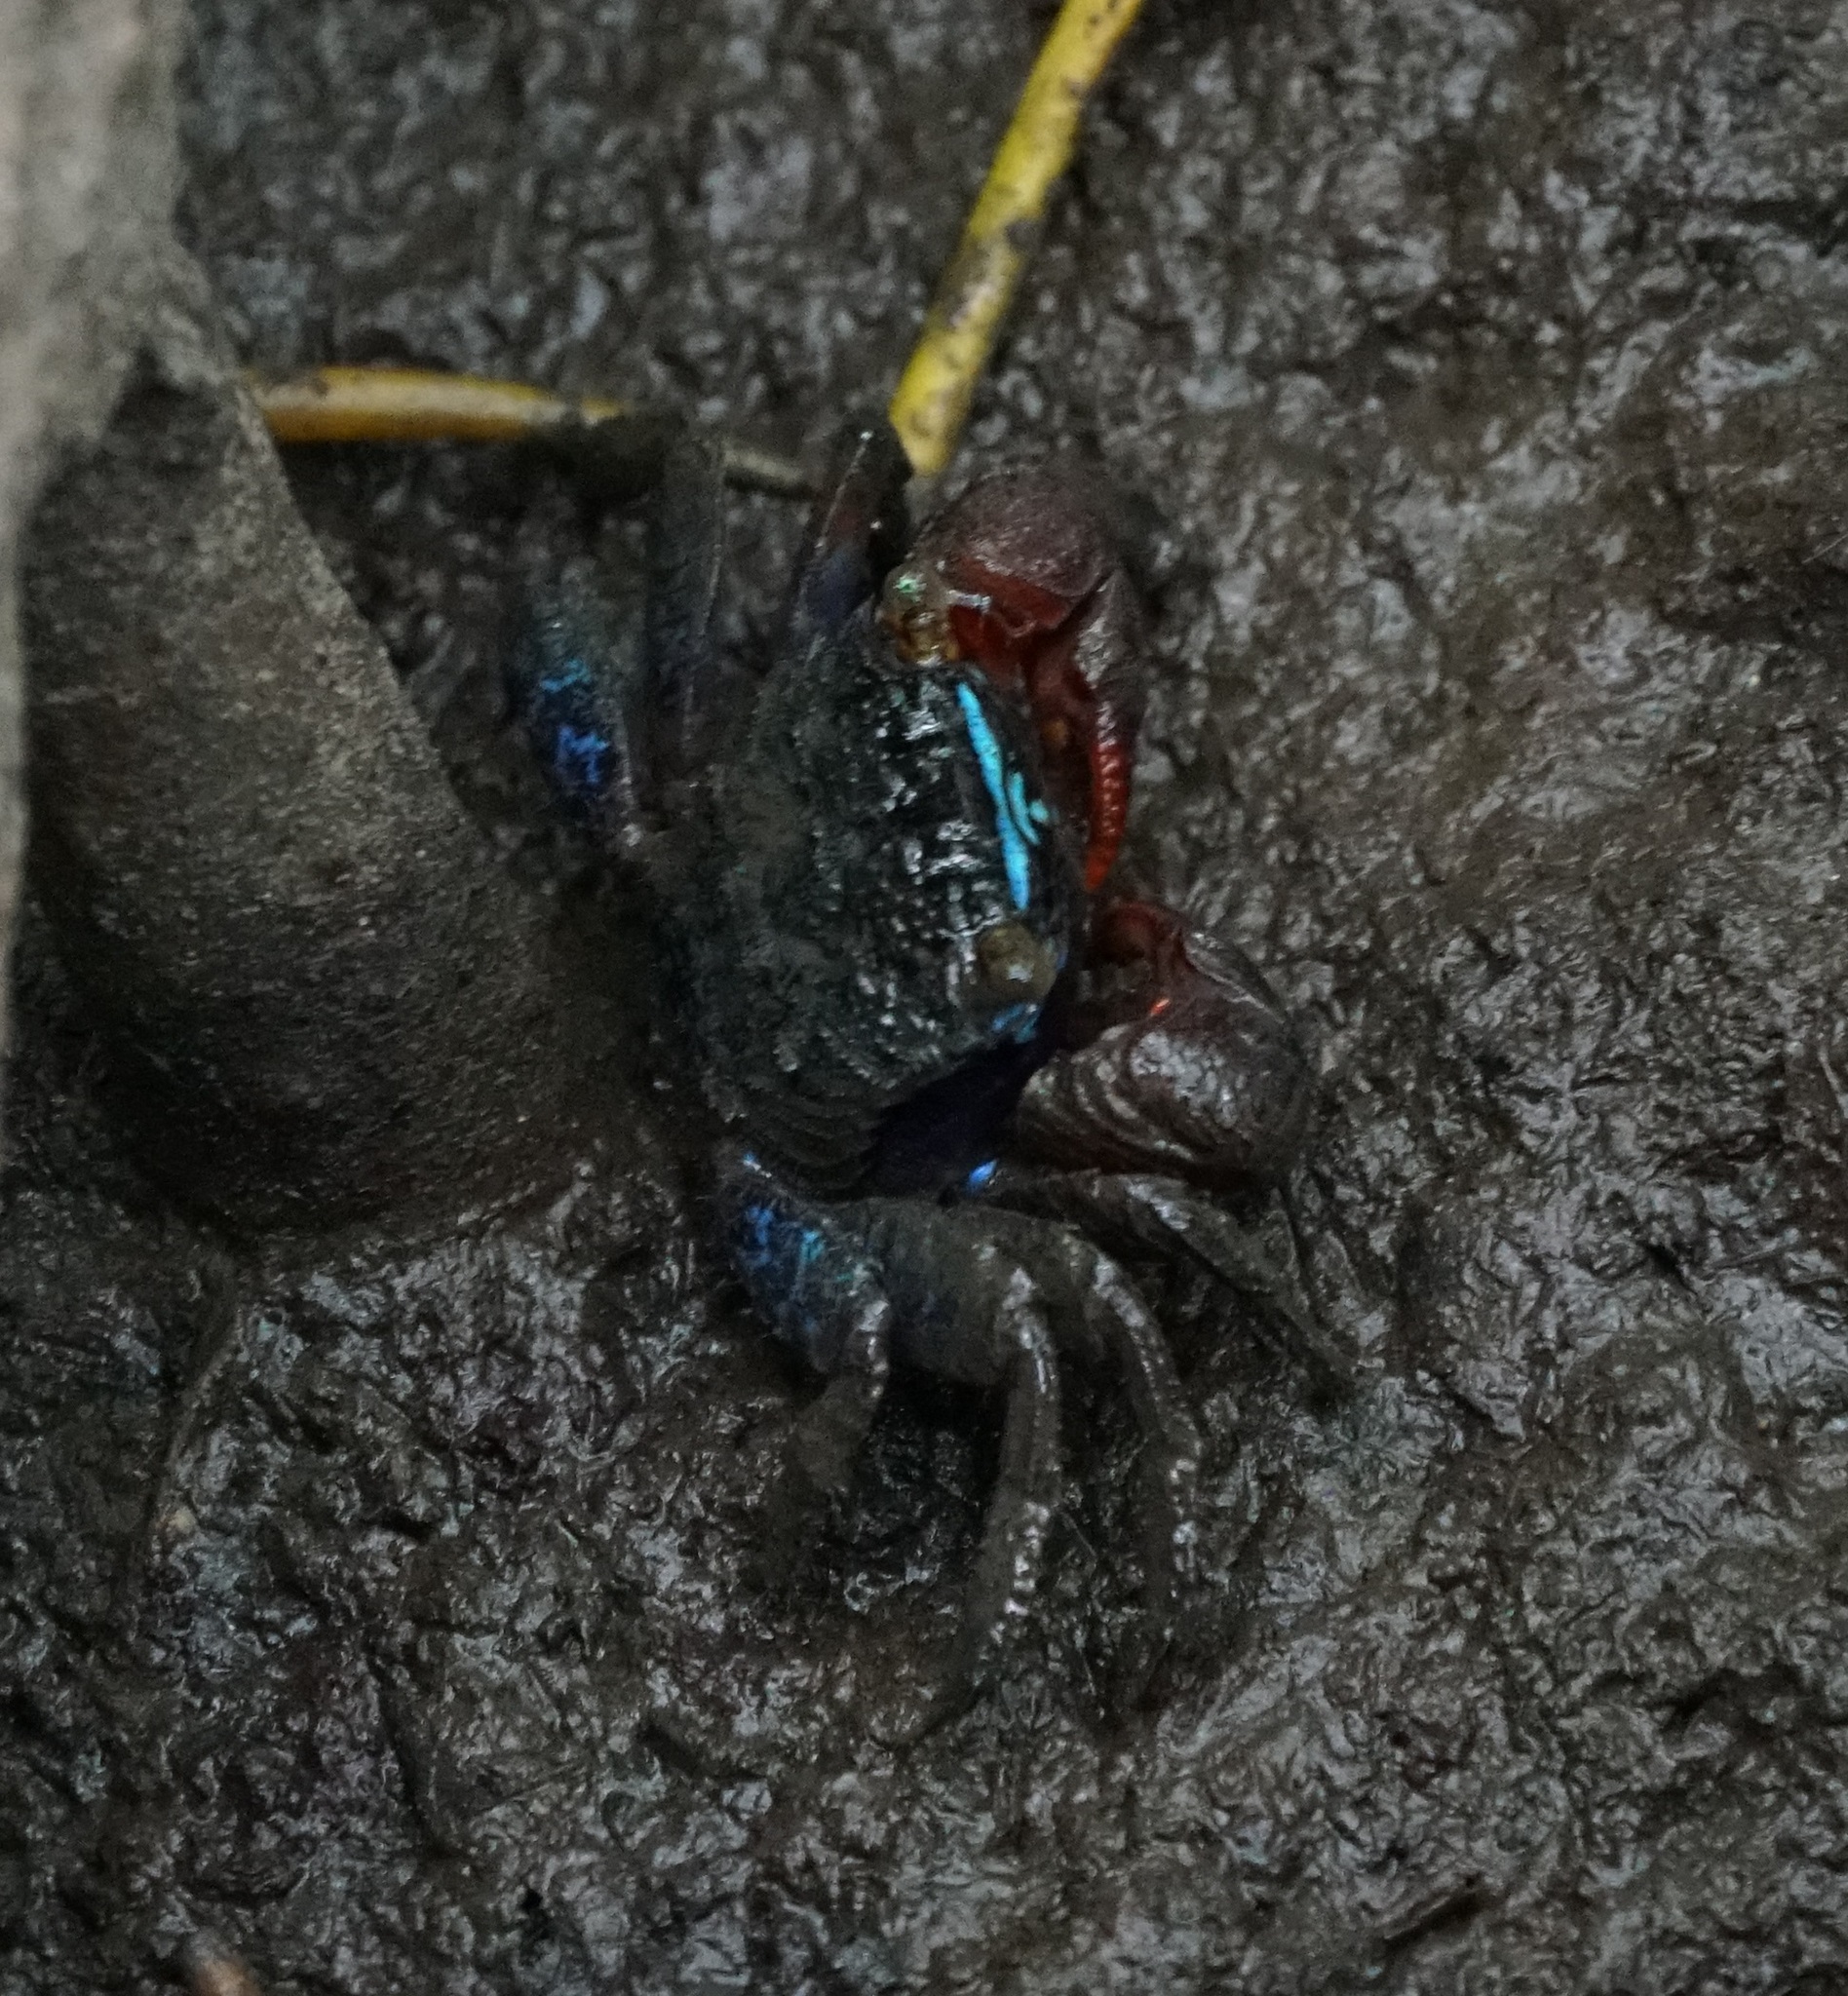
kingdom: Animalia
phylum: Arthropoda
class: Malacostraca
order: Decapoda
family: Sesarmidae
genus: Parasesarma
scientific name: Parasesarma indiarum
